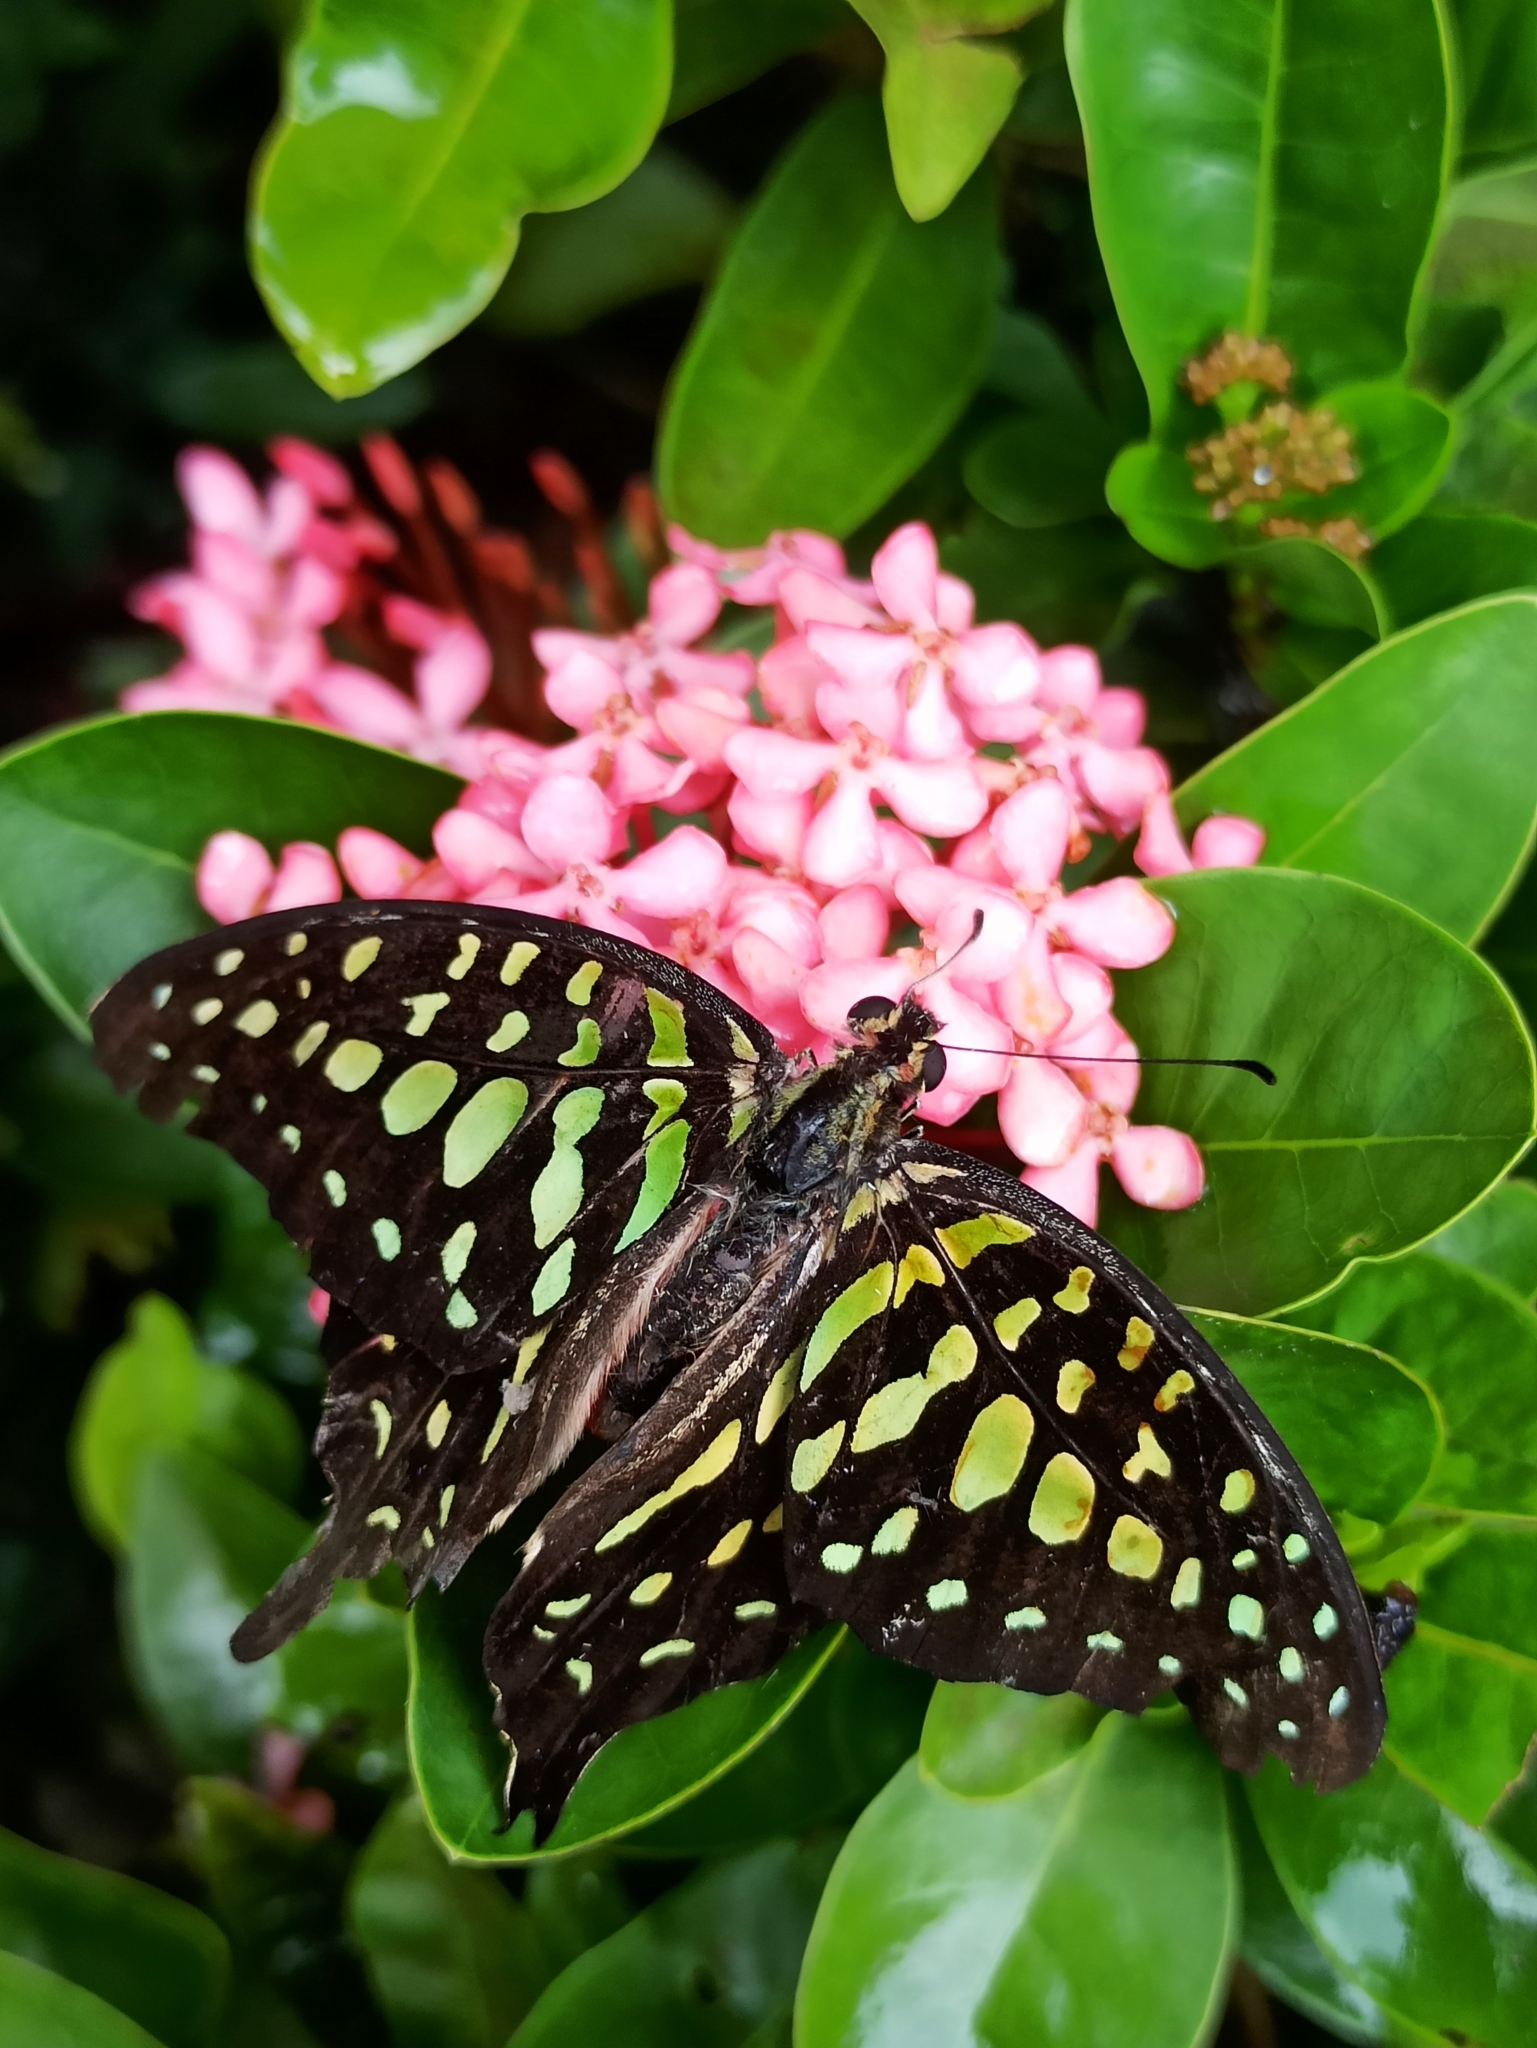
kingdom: Animalia
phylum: Arthropoda
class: Insecta
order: Lepidoptera
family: Papilionidae
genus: Graphium
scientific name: Graphium agamemnon
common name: Tailed jay
